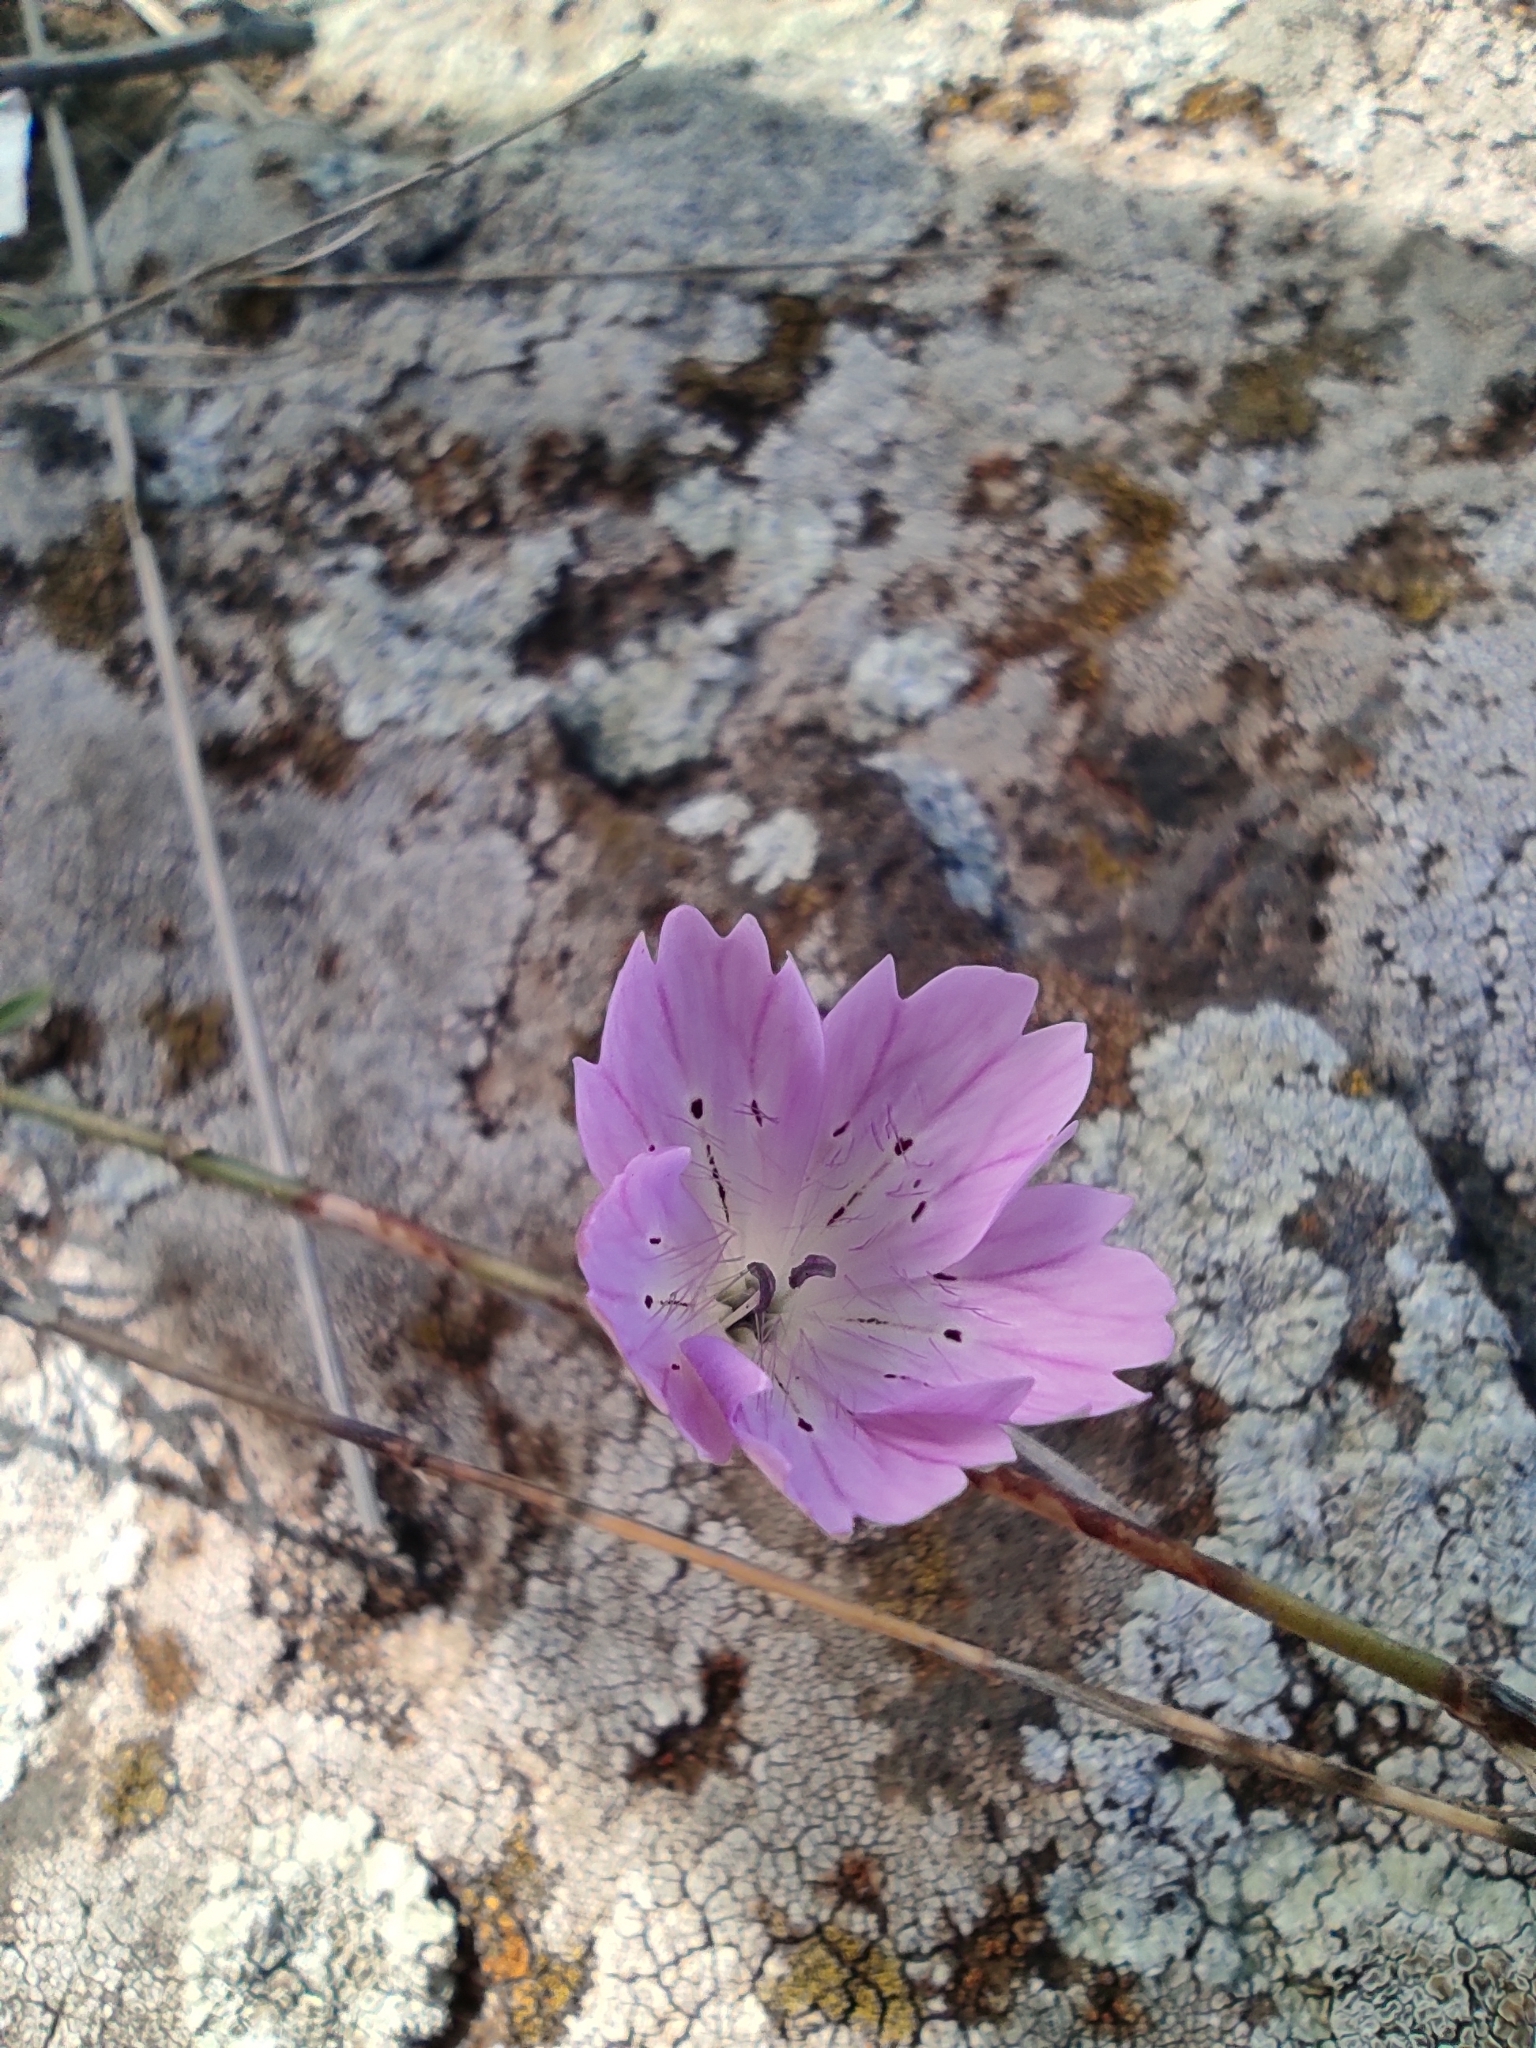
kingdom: Plantae
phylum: Tracheophyta
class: Magnoliopsida
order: Caryophyllales
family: Caryophyllaceae
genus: Dianthus
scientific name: Dianthus strictus
